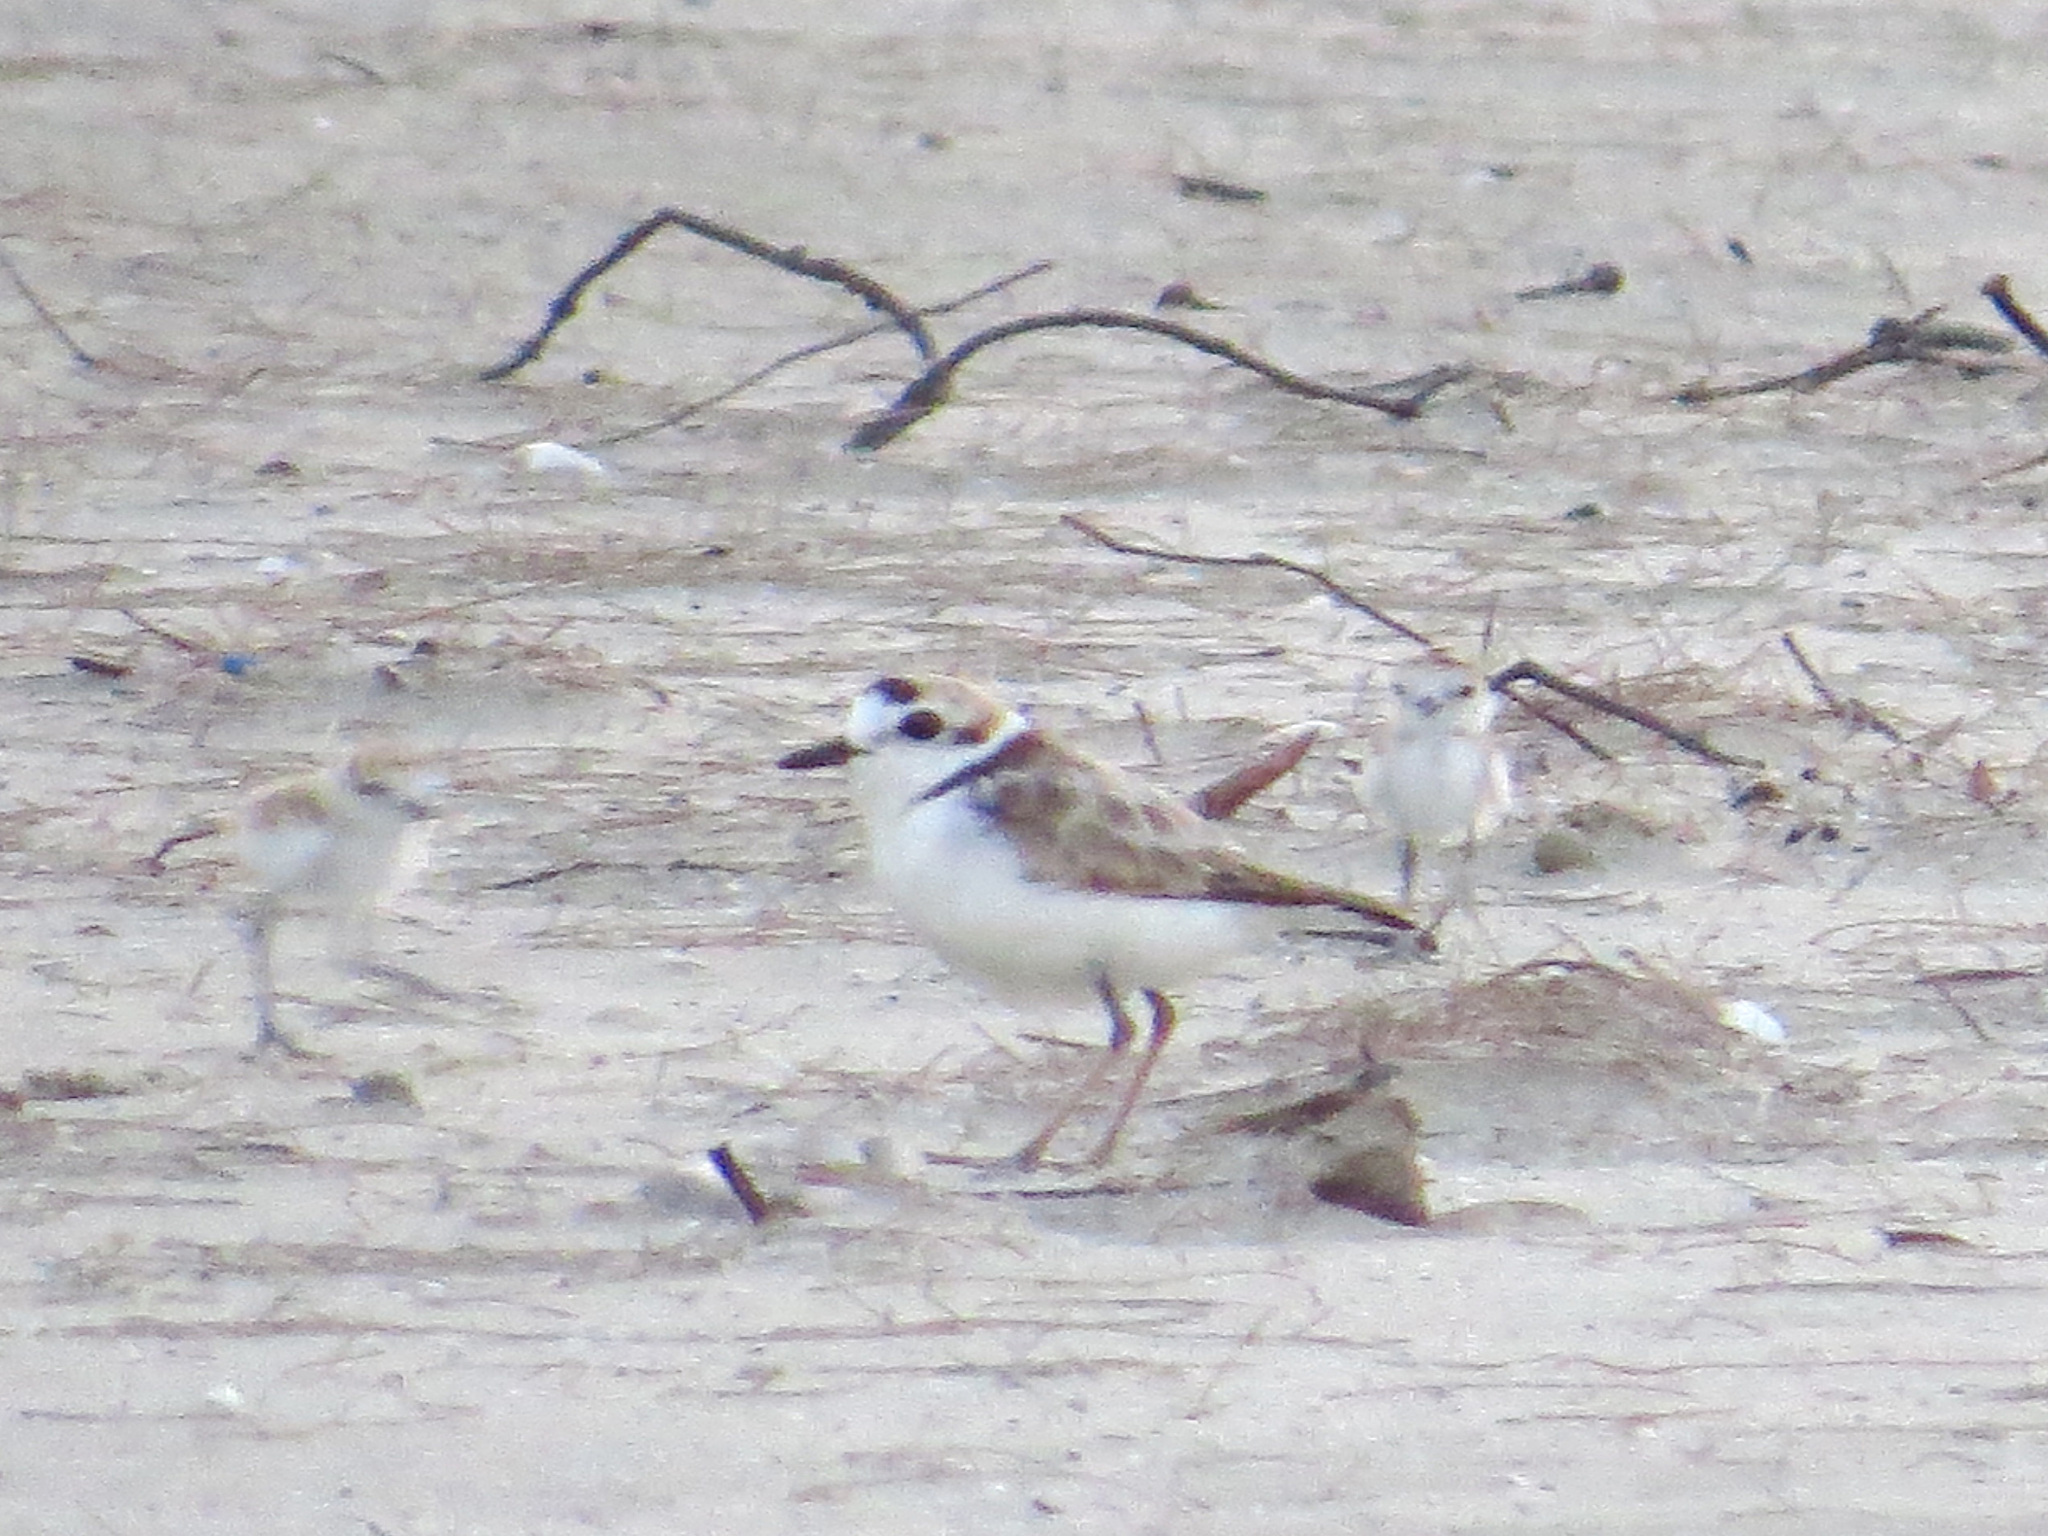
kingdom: Animalia
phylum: Chordata
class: Aves
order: Charadriiformes
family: Charadriidae
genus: Anarhynchus
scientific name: Anarhynchus
